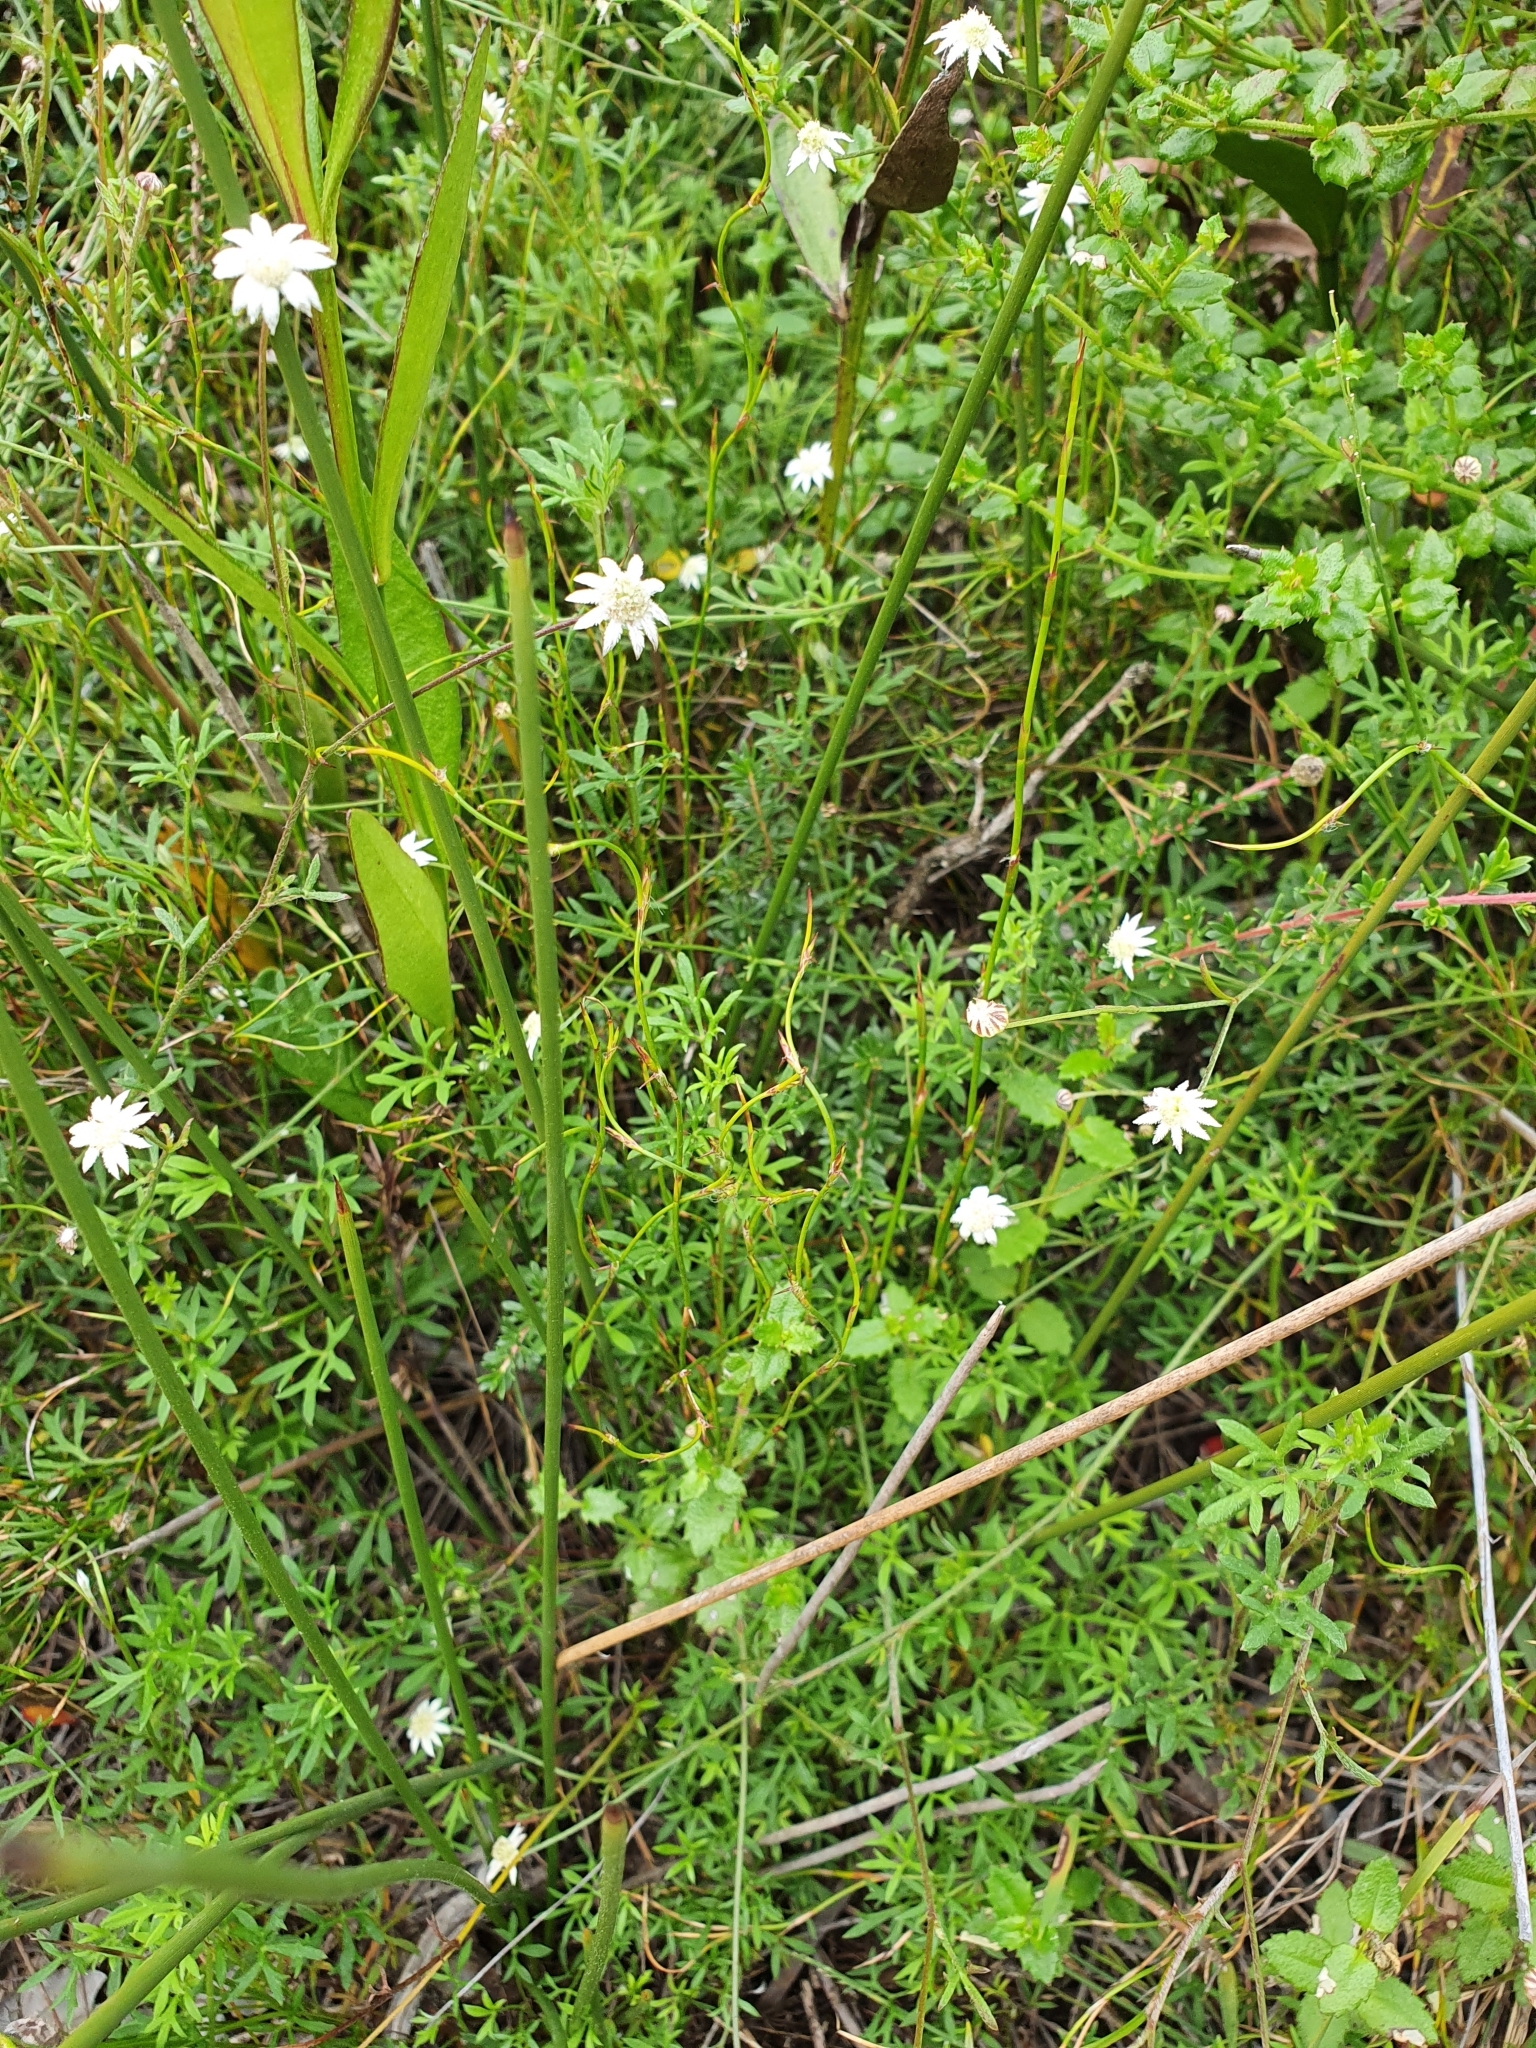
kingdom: Plantae
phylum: Tracheophyta
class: Magnoliopsida
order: Apiales
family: Apiaceae
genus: Actinotus
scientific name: Actinotus minor
